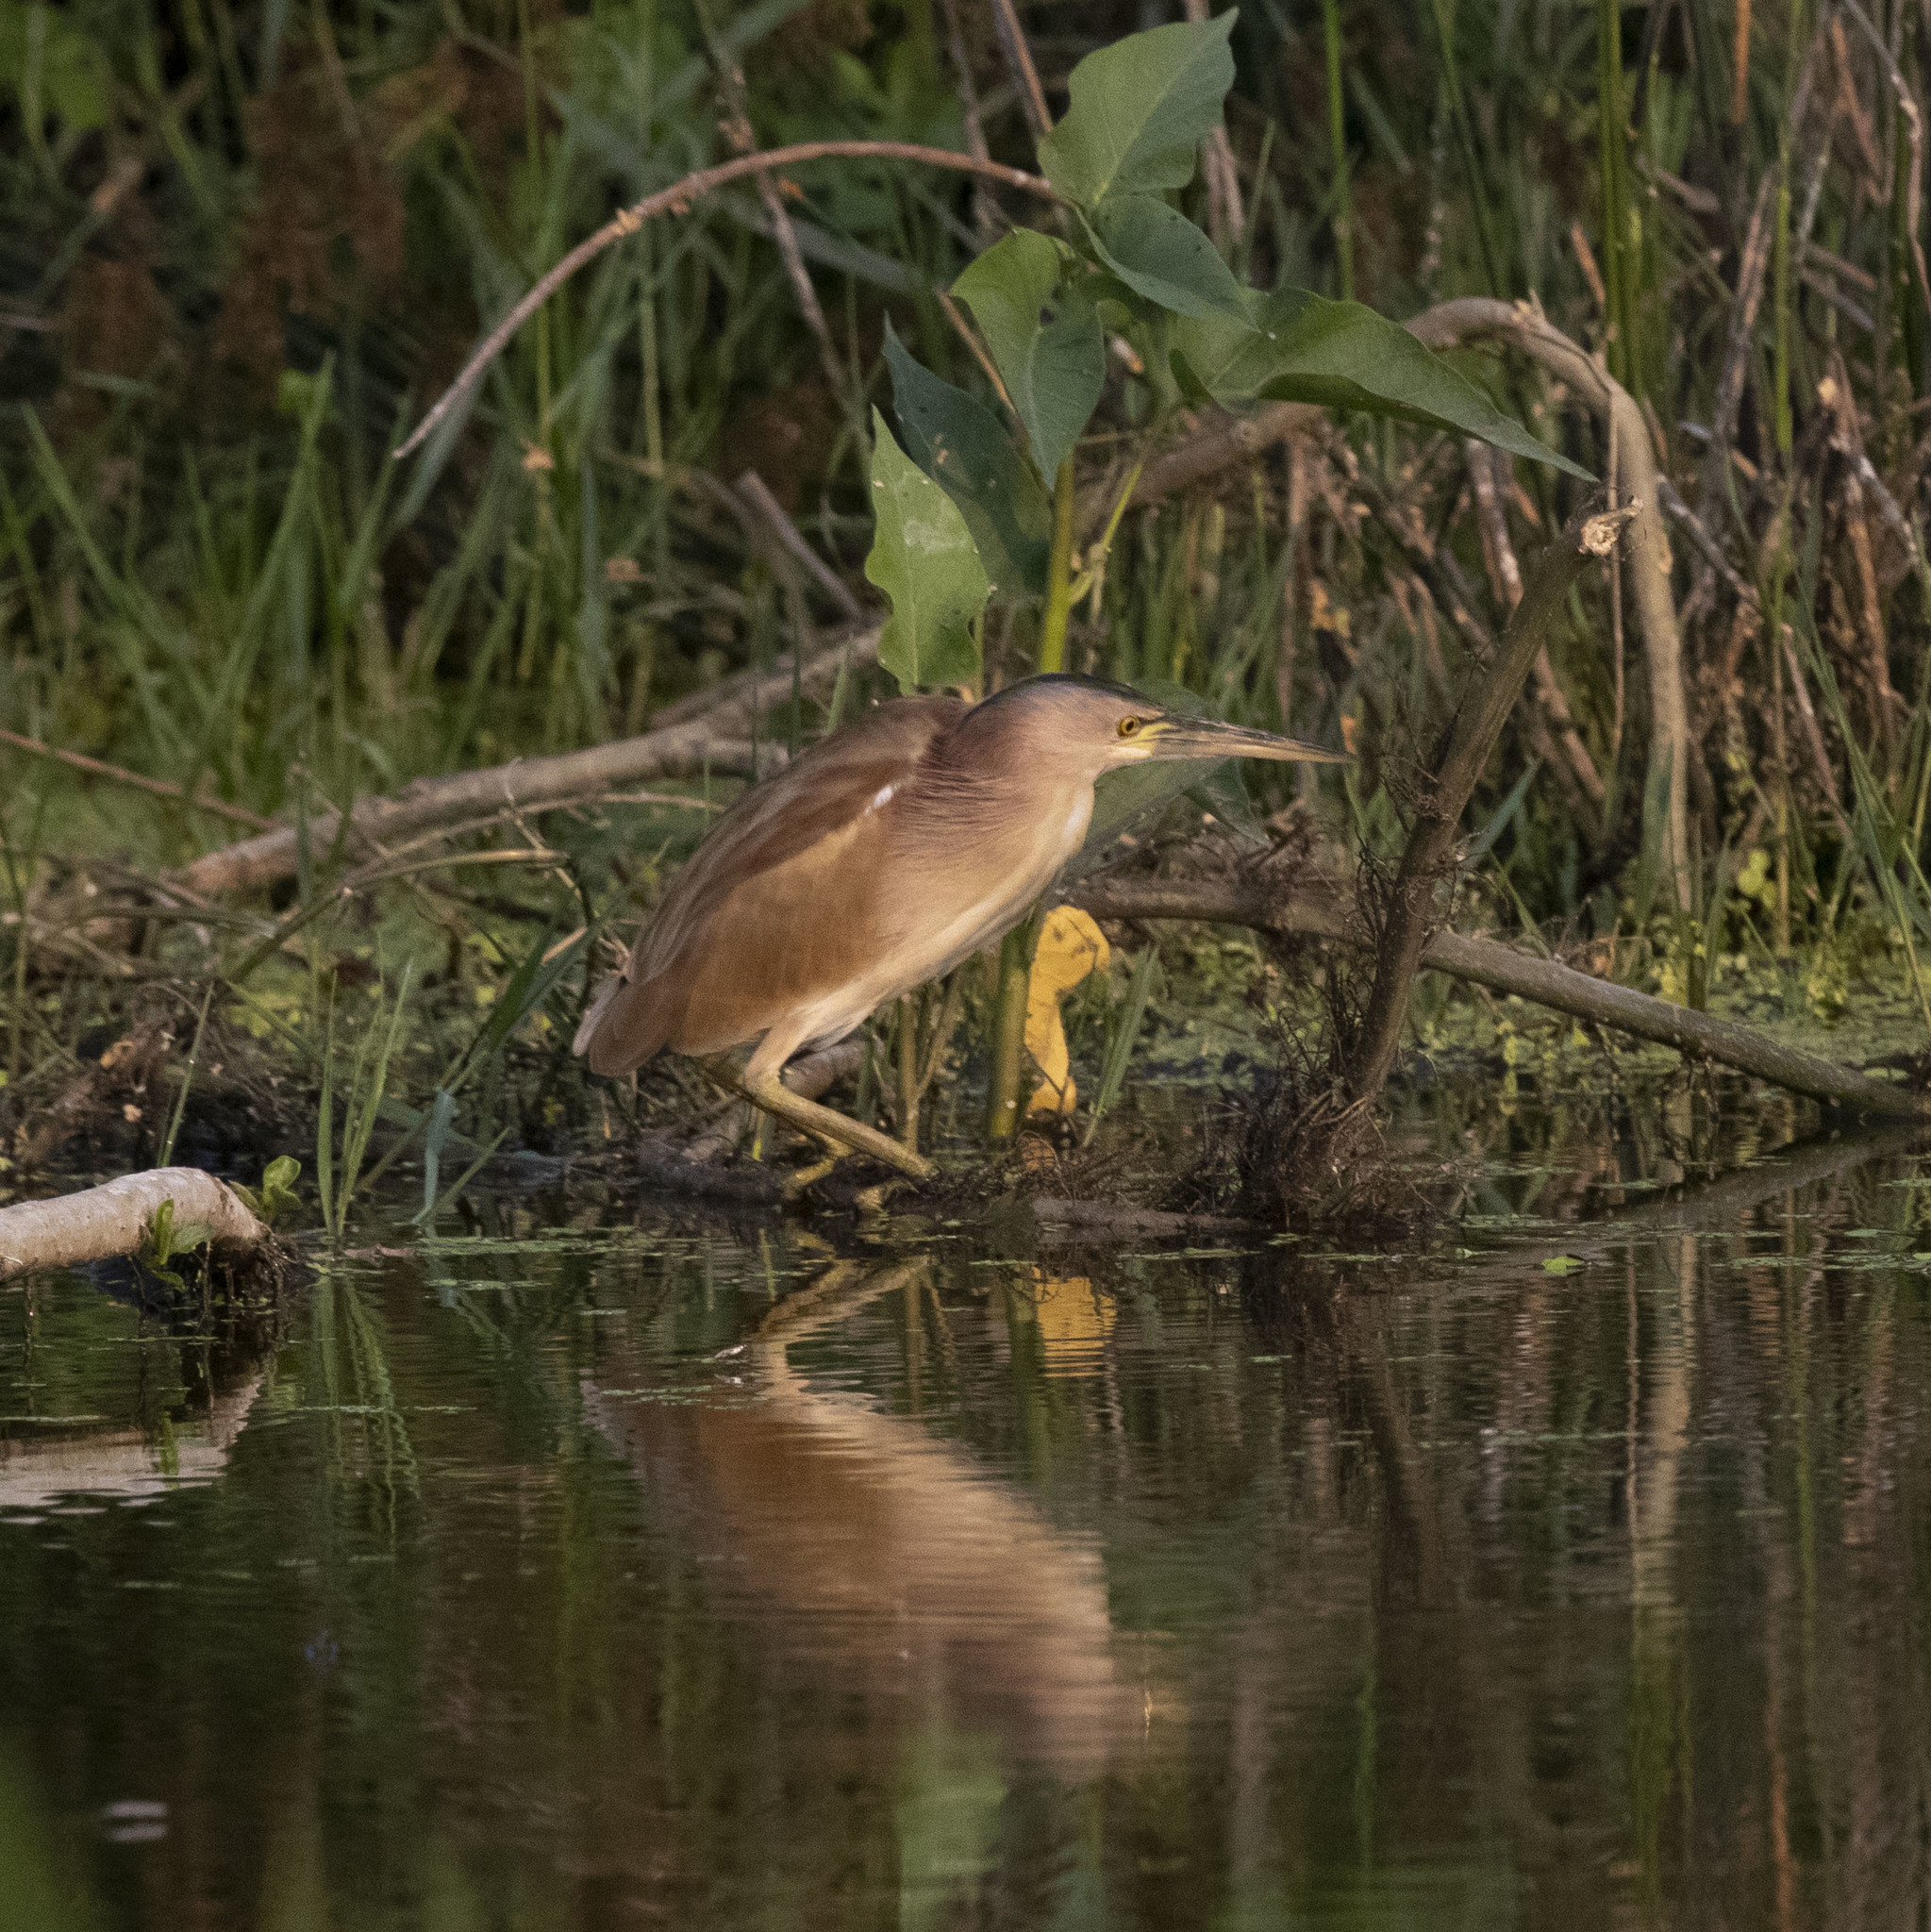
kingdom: Animalia
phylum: Chordata
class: Aves
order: Pelecaniformes
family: Ardeidae
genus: Ixobrychus
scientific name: Ixobrychus sinensis
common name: Yellow bittern
